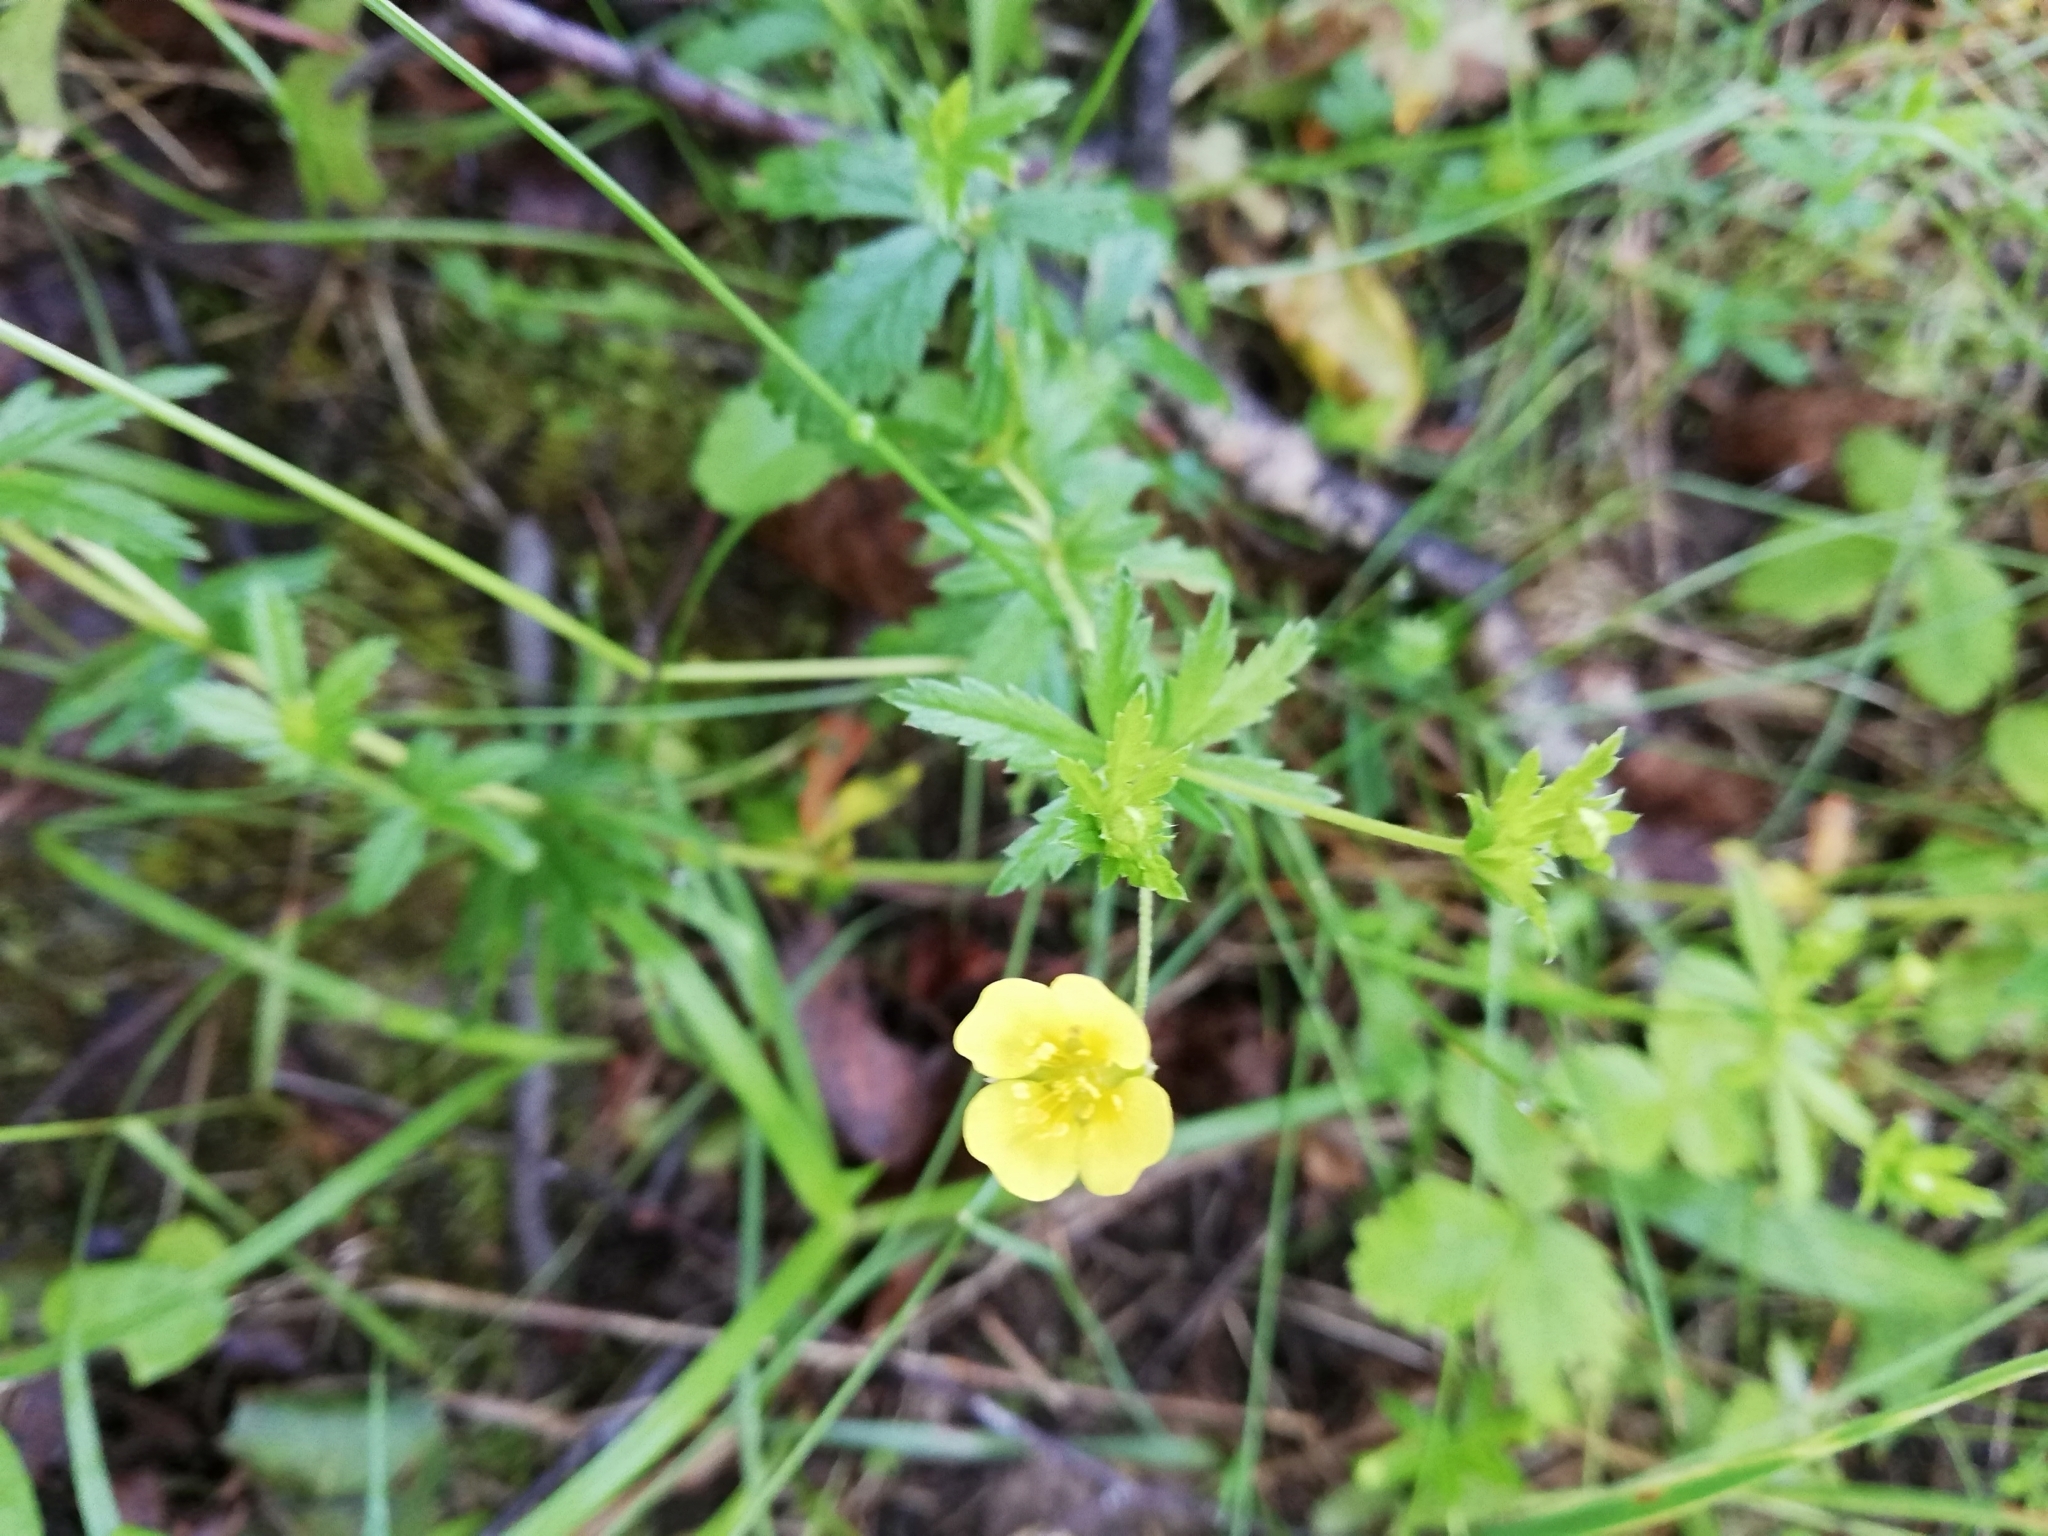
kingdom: Plantae
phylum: Tracheophyta
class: Magnoliopsida
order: Rosales
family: Rosaceae
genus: Potentilla
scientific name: Potentilla erecta
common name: Tormentil
